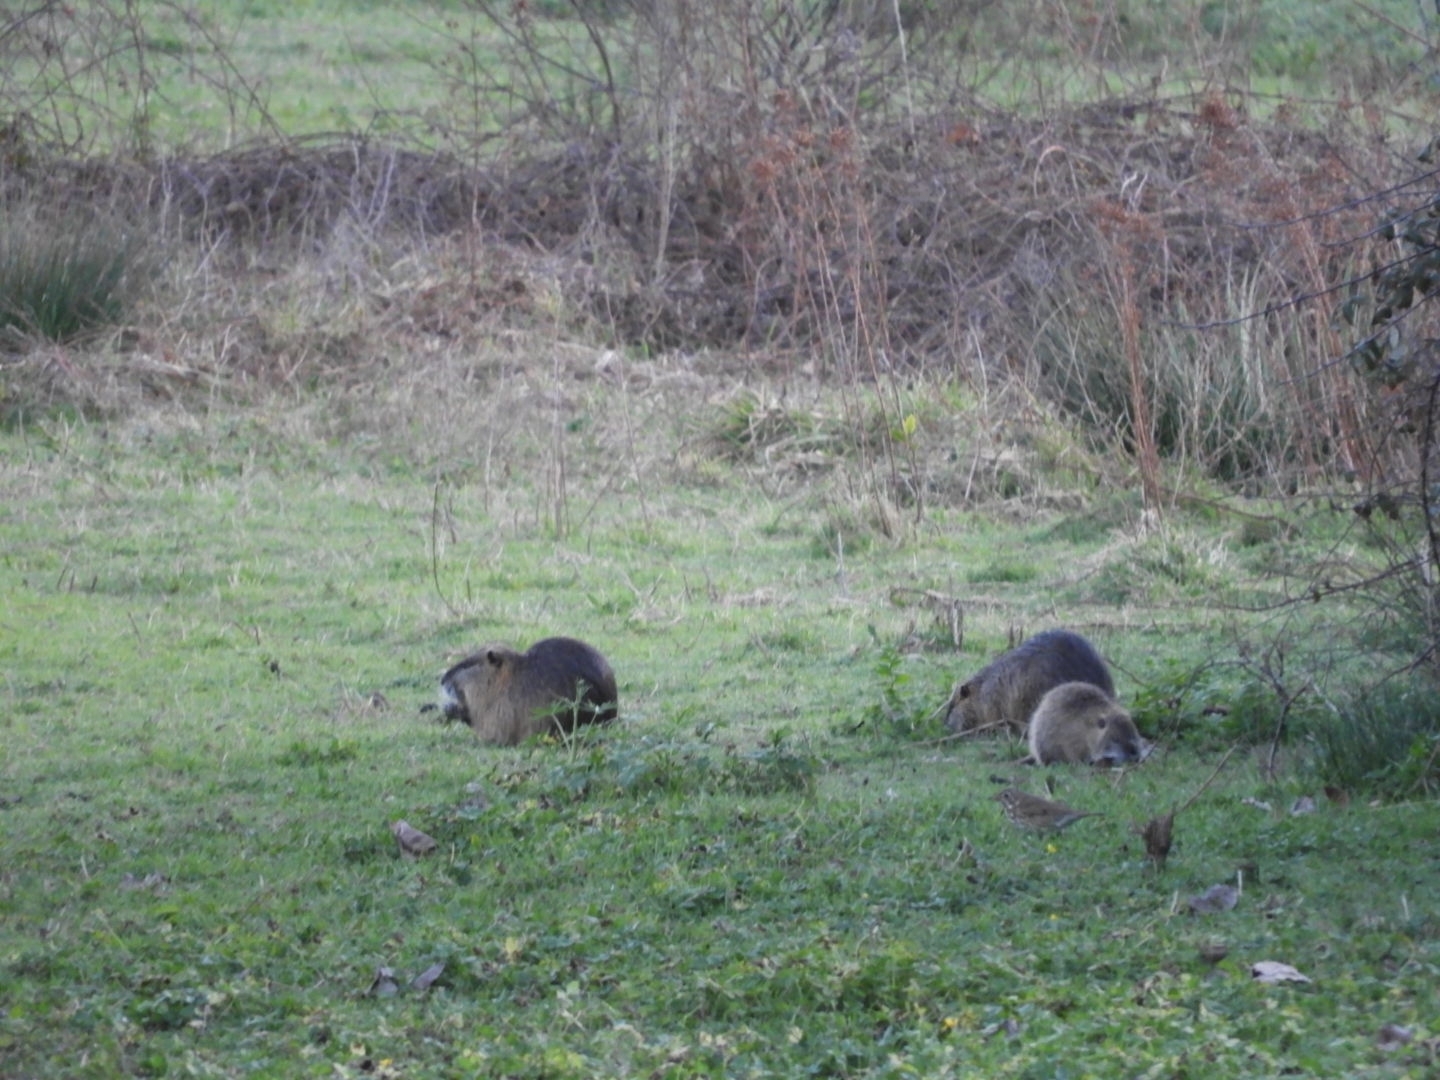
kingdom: Animalia
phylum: Chordata
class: Mammalia
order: Rodentia
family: Myocastoridae
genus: Myocastor
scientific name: Myocastor coypus
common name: Coypu
